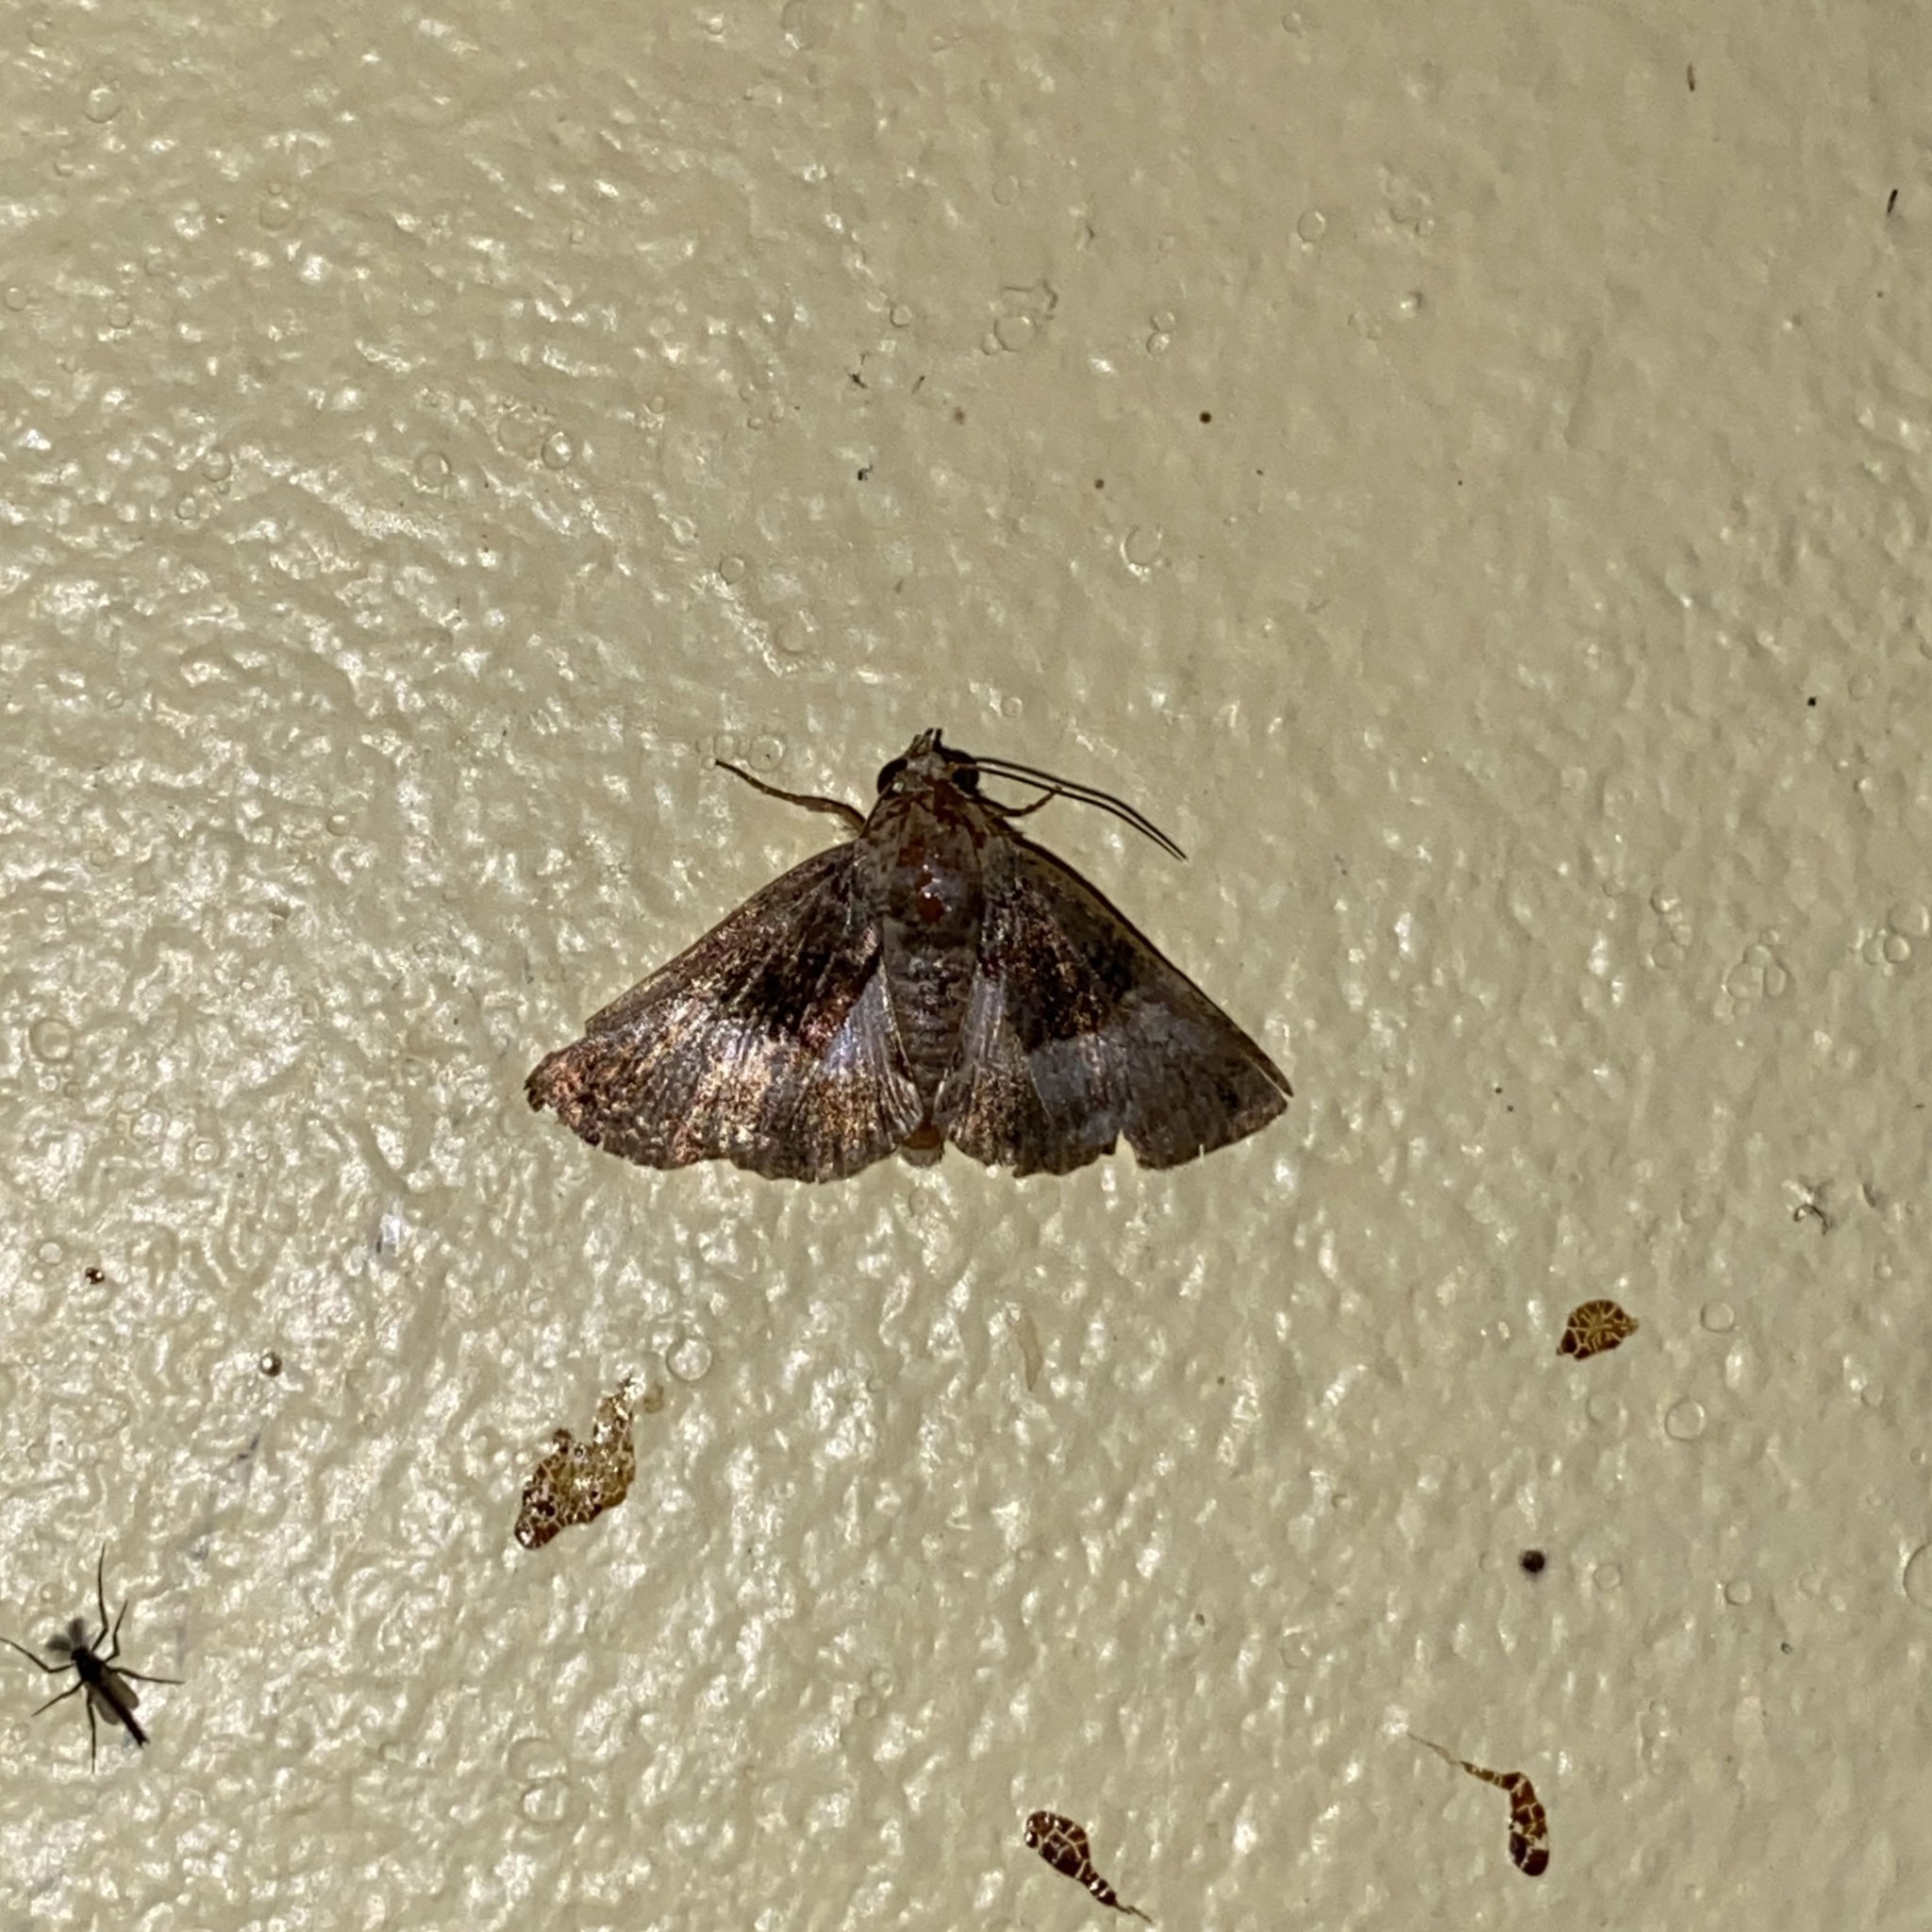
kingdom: Animalia
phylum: Arthropoda
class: Insecta
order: Lepidoptera
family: Noctuidae
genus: Catephiodes
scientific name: Catephiodes zuelana
